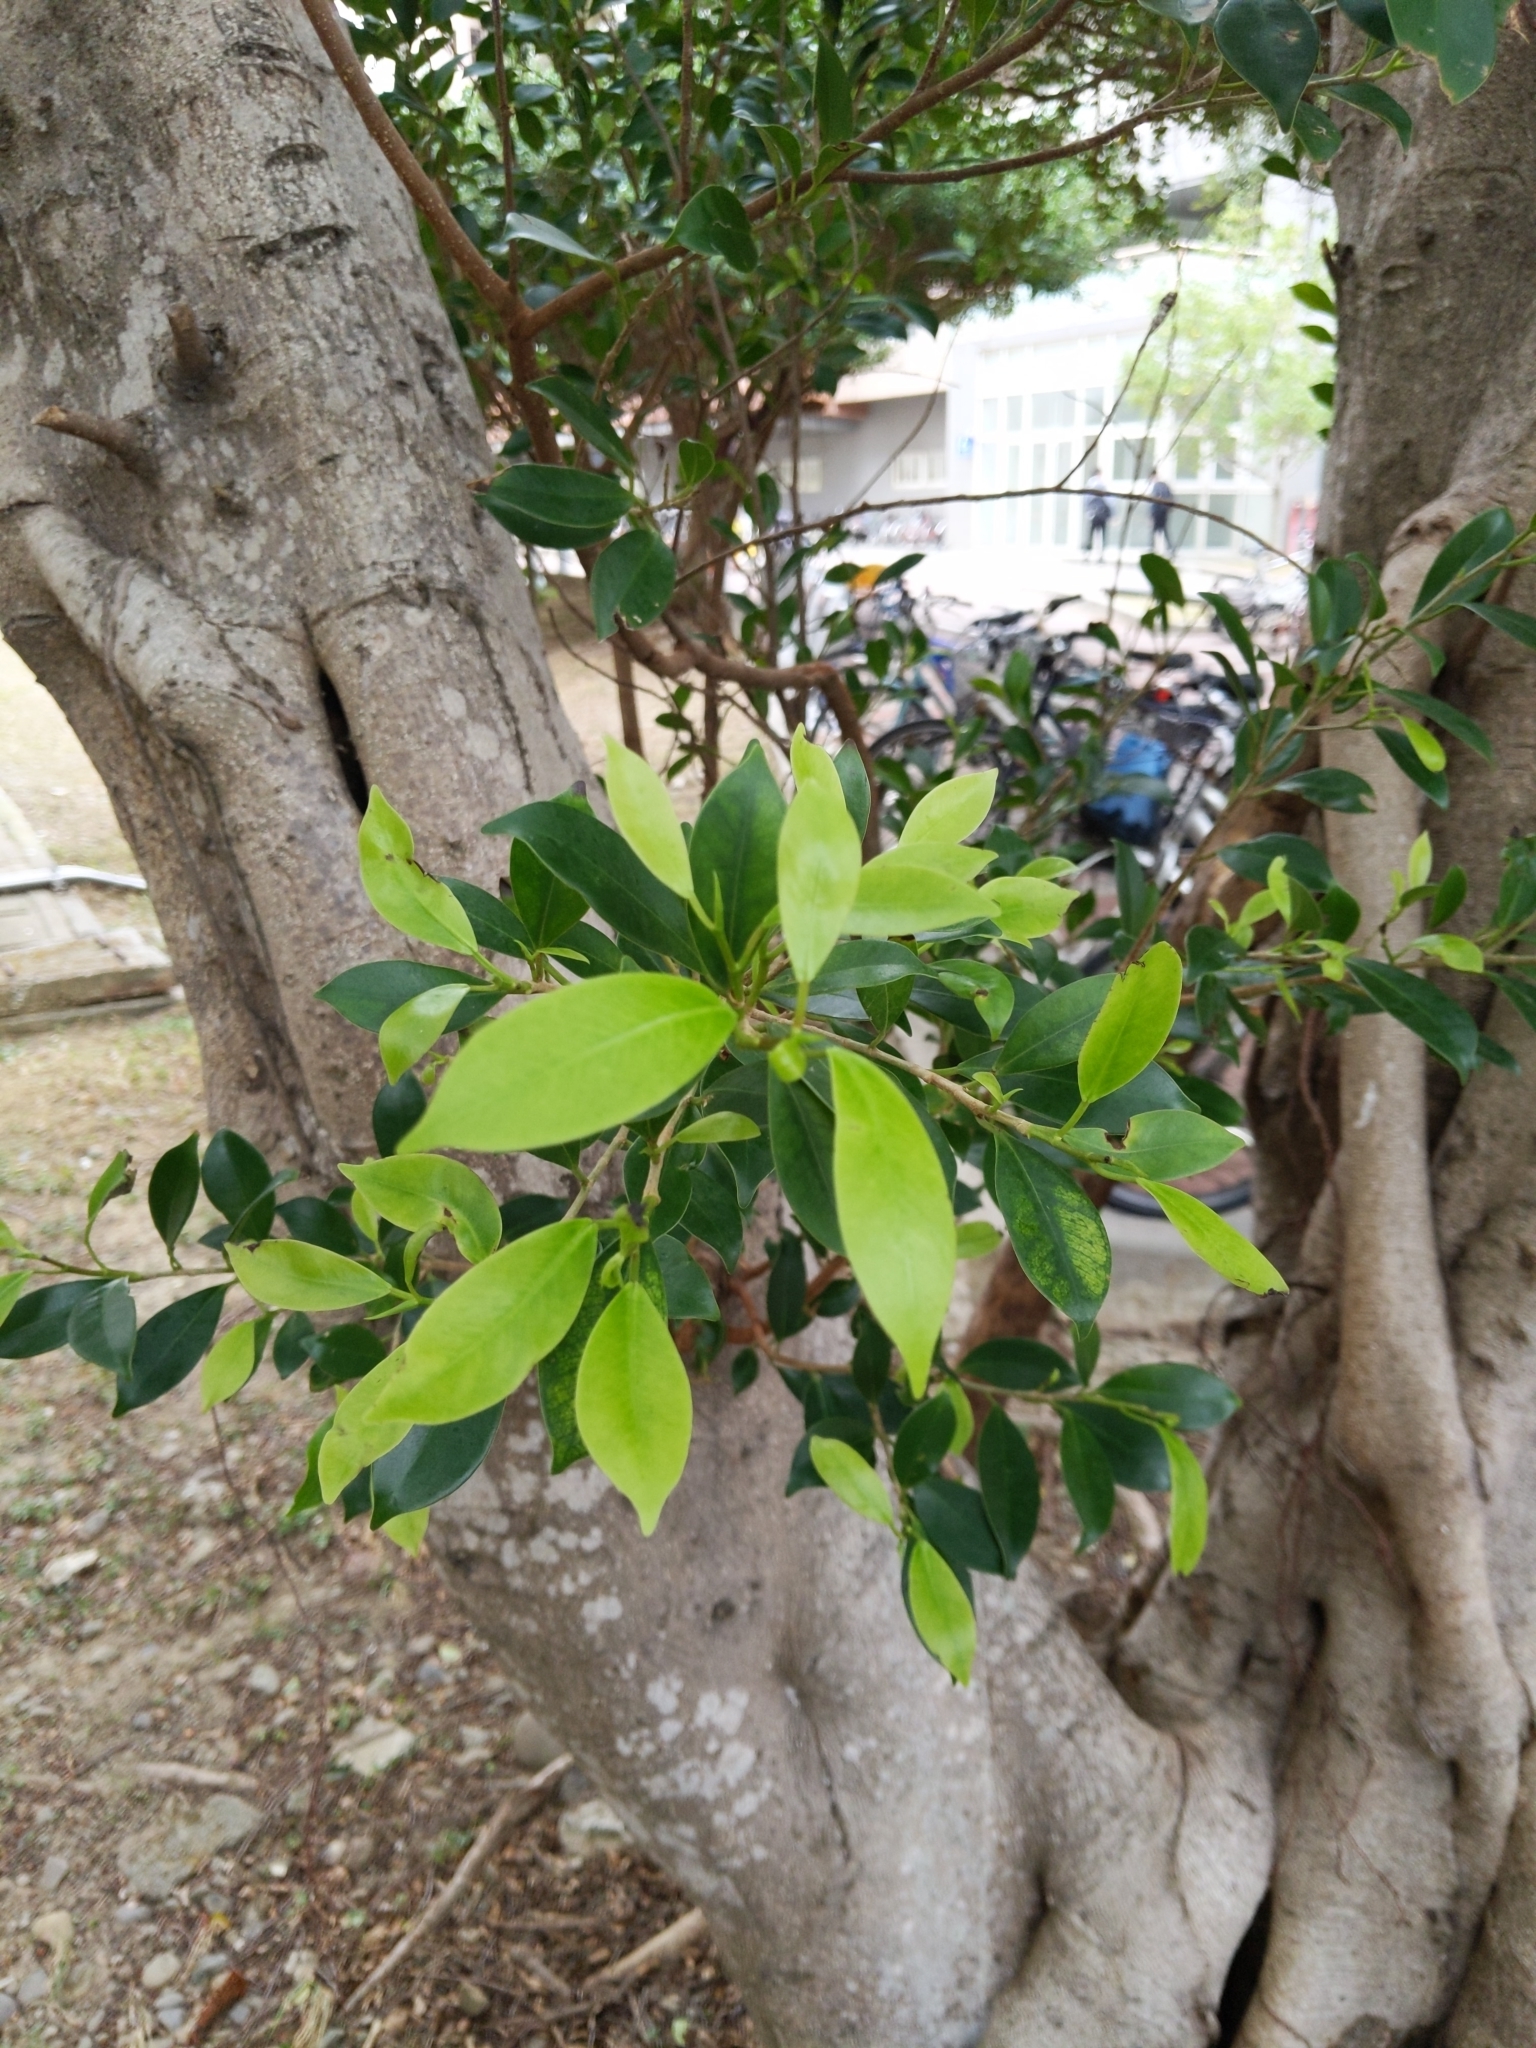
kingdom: Plantae
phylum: Tracheophyta
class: Magnoliopsida
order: Rosales
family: Moraceae
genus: Ficus
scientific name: Ficus microcarpa
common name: Chinese banyan
